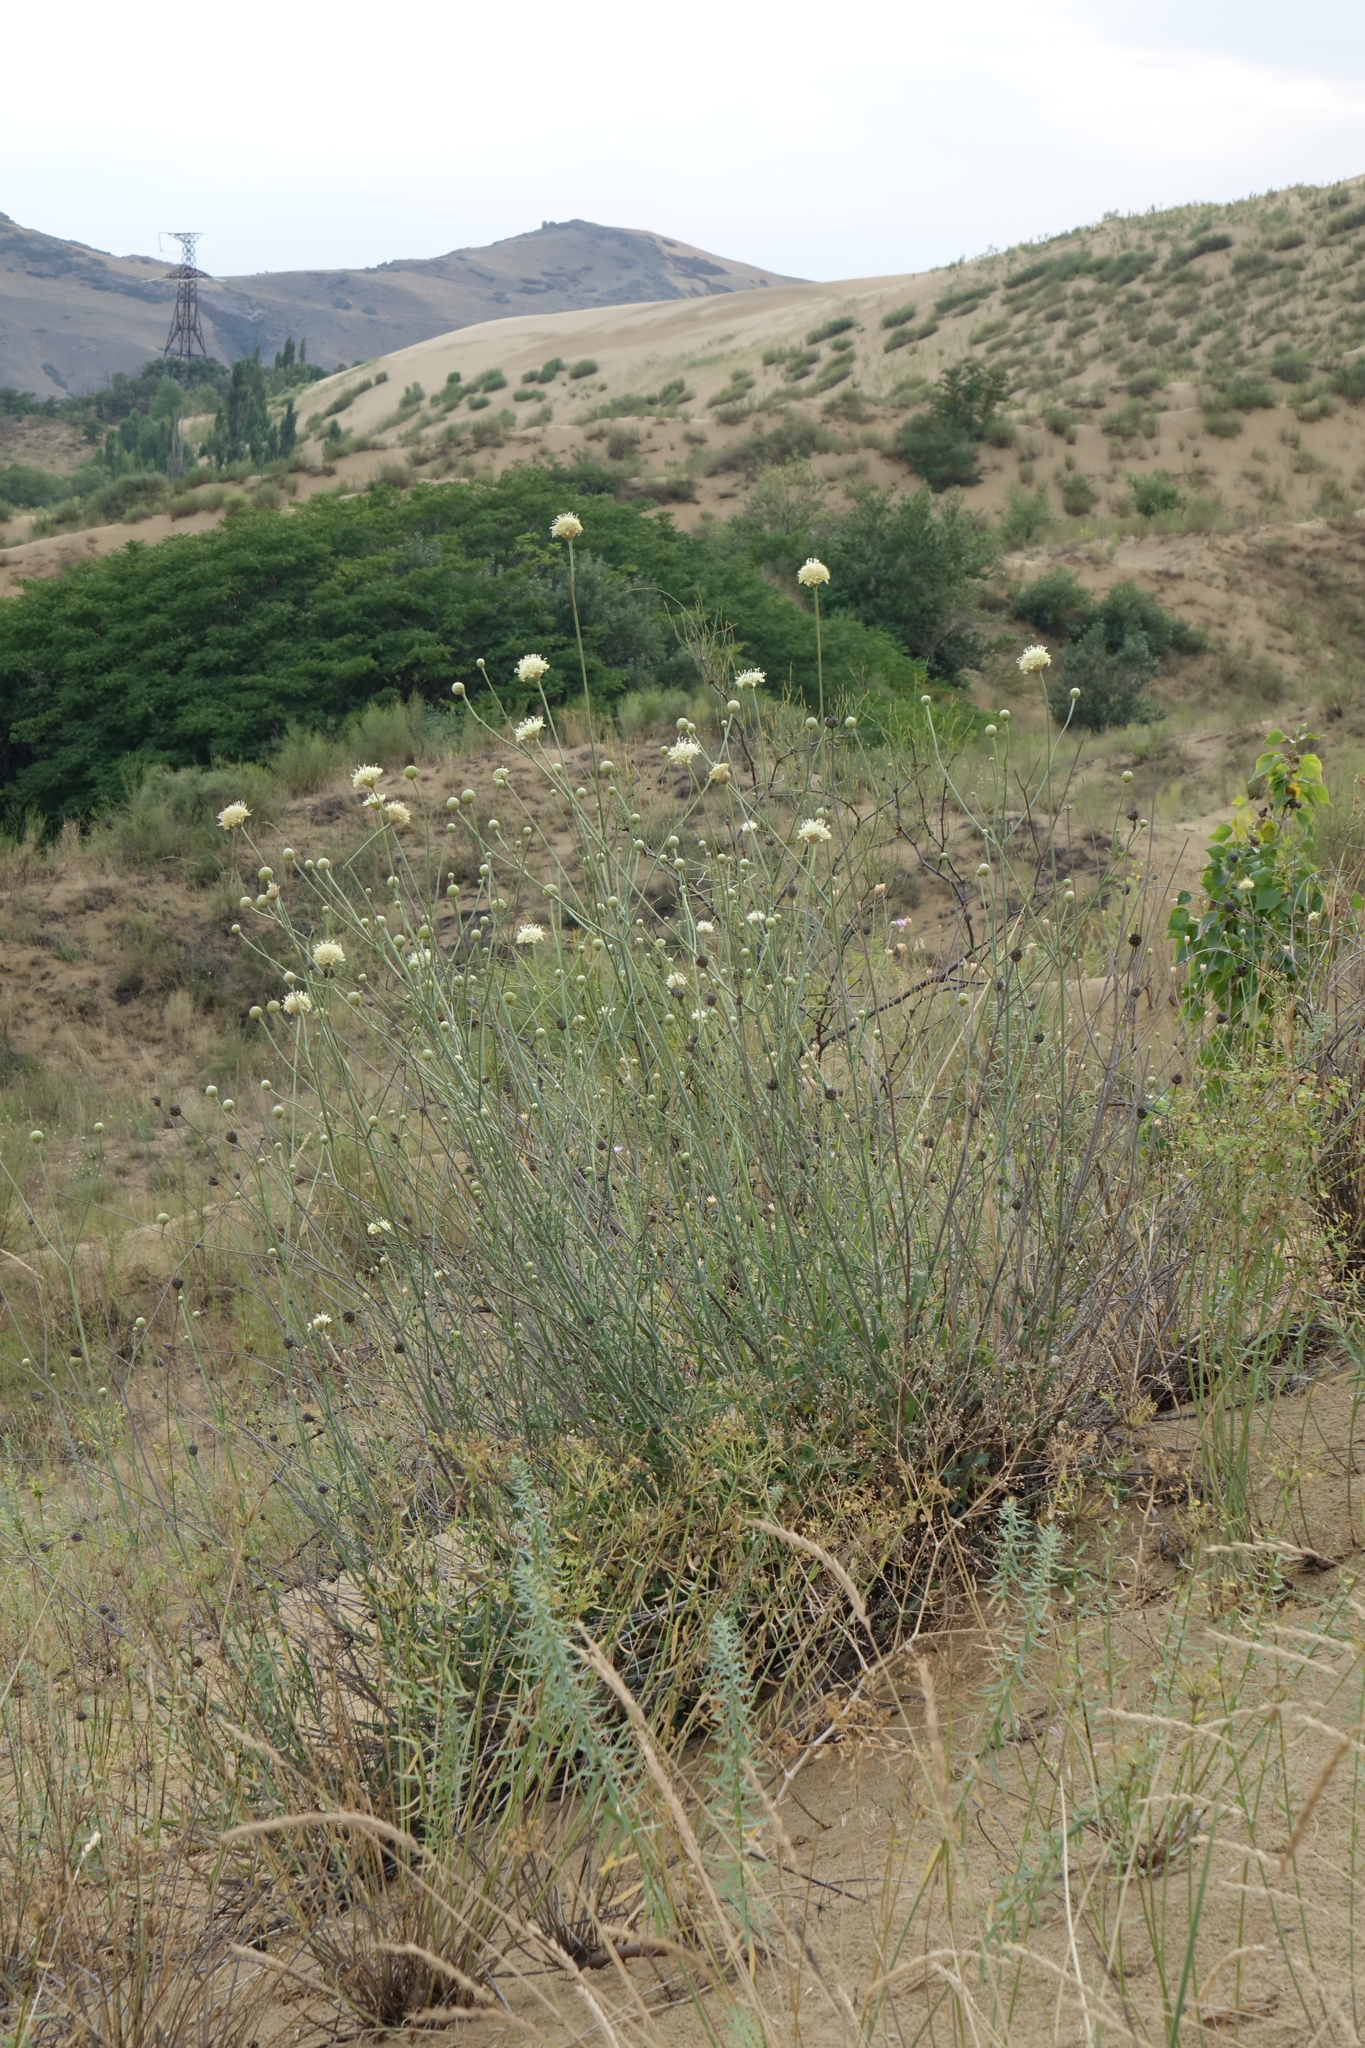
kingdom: Plantae
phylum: Tracheophyta
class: Magnoliopsida
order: Dipsacales
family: Caprifoliaceae
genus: Cephalaria
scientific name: Cephalaria uralensis
